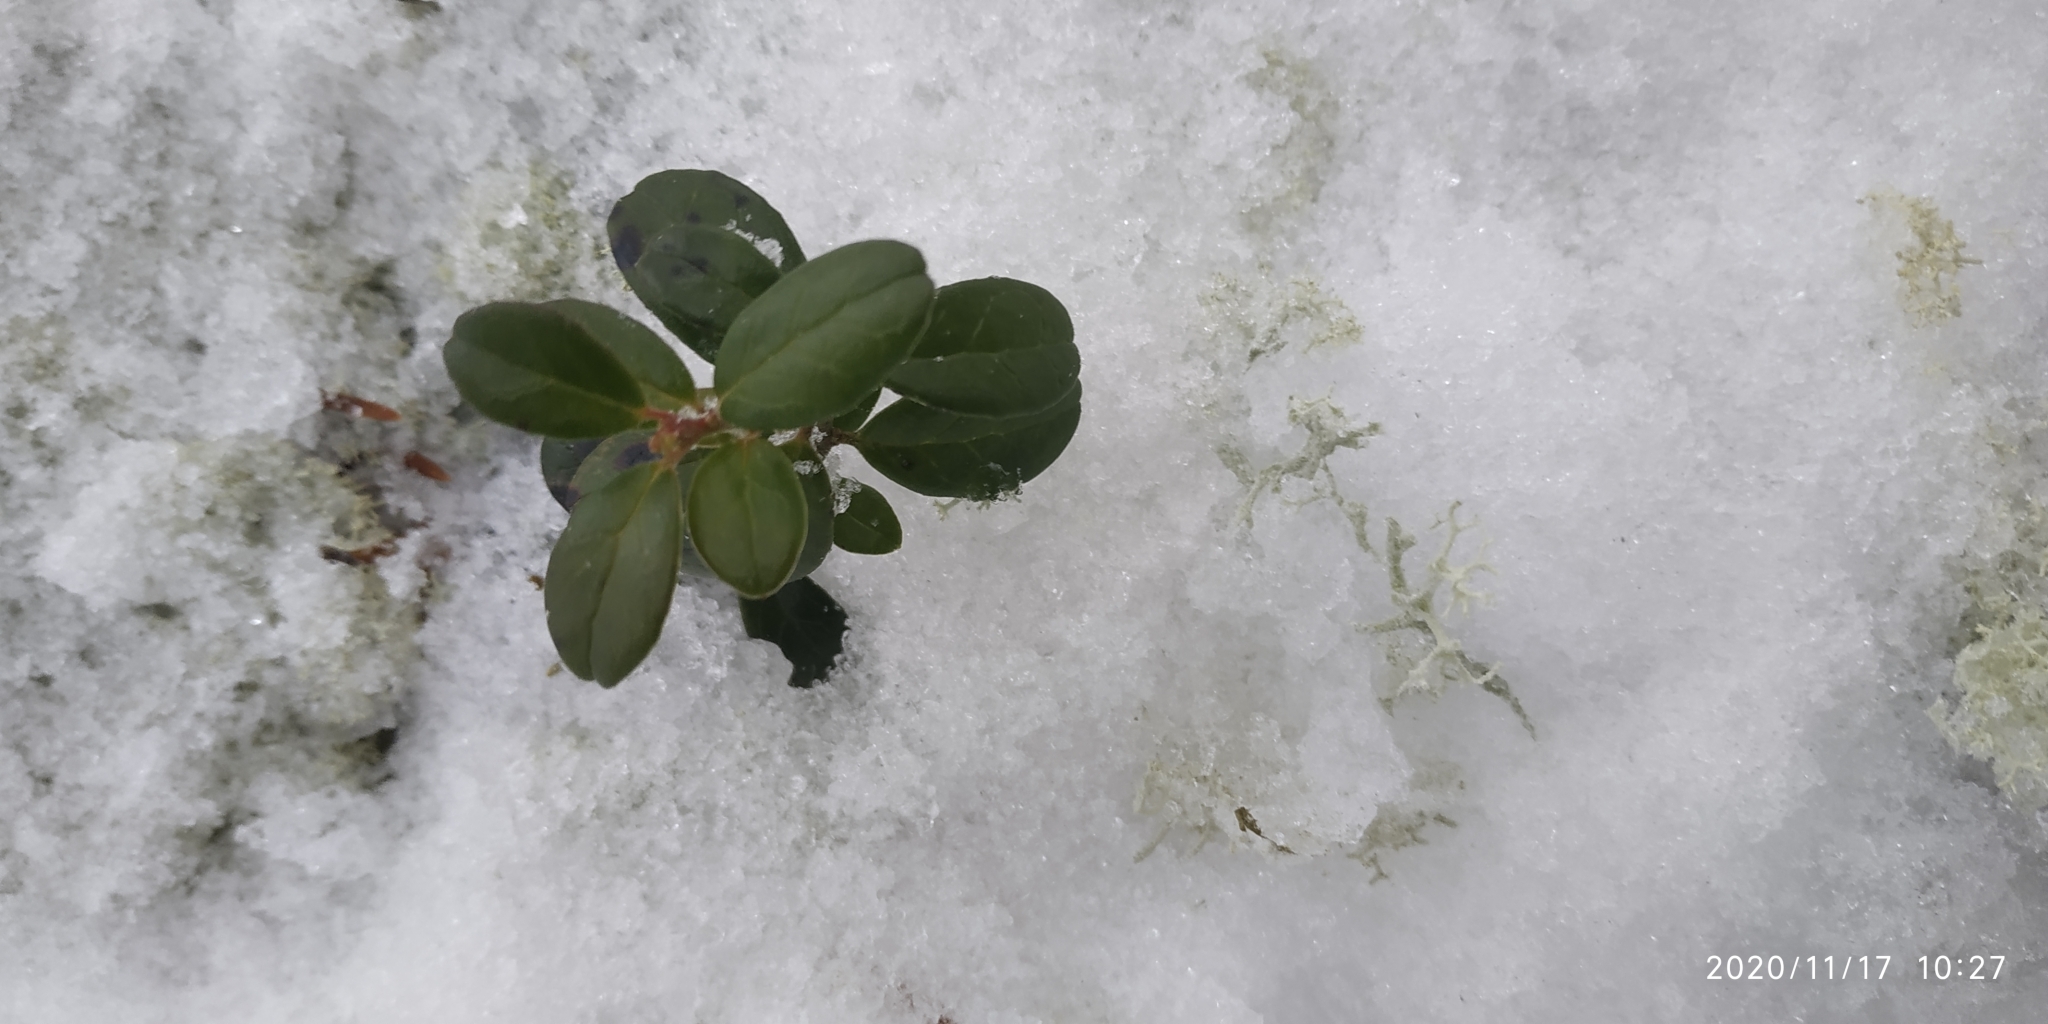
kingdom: Plantae
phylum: Tracheophyta
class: Magnoliopsida
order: Ericales
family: Ericaceae
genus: Vaccinium
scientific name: Vaccinium vitis-idaea
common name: Cowberry
